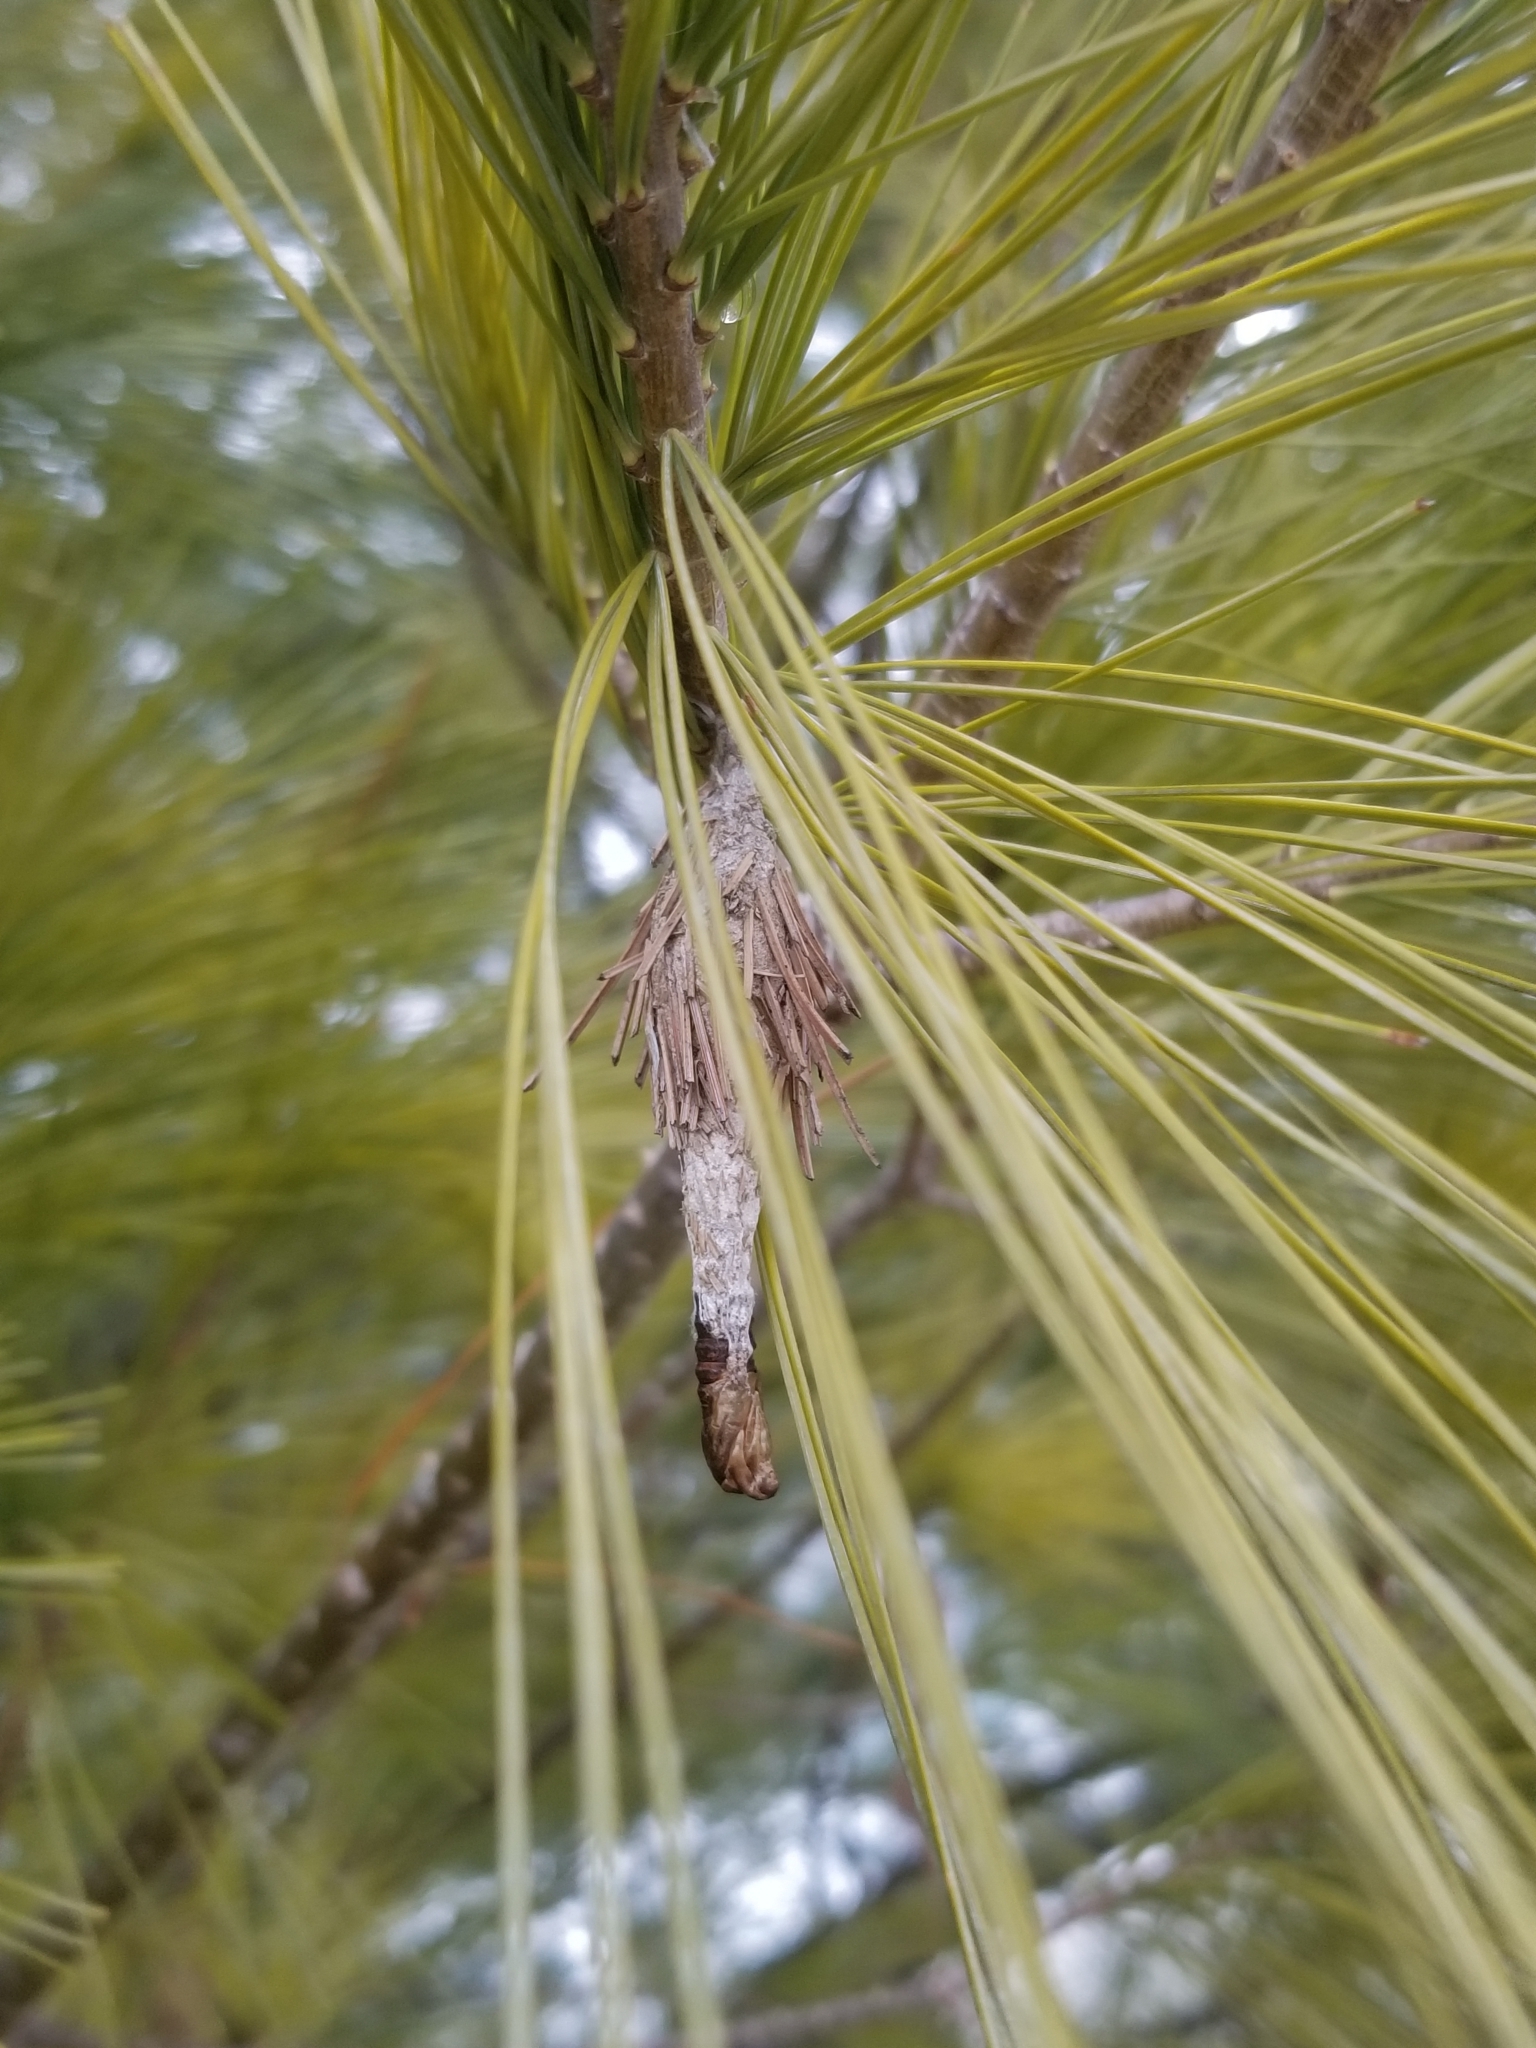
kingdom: Animalia
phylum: Arthropoda
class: Insecta
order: Lepidoptera
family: Psychidae
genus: Thyridopteryx
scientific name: Thyridopteryx ephemeraeformis
